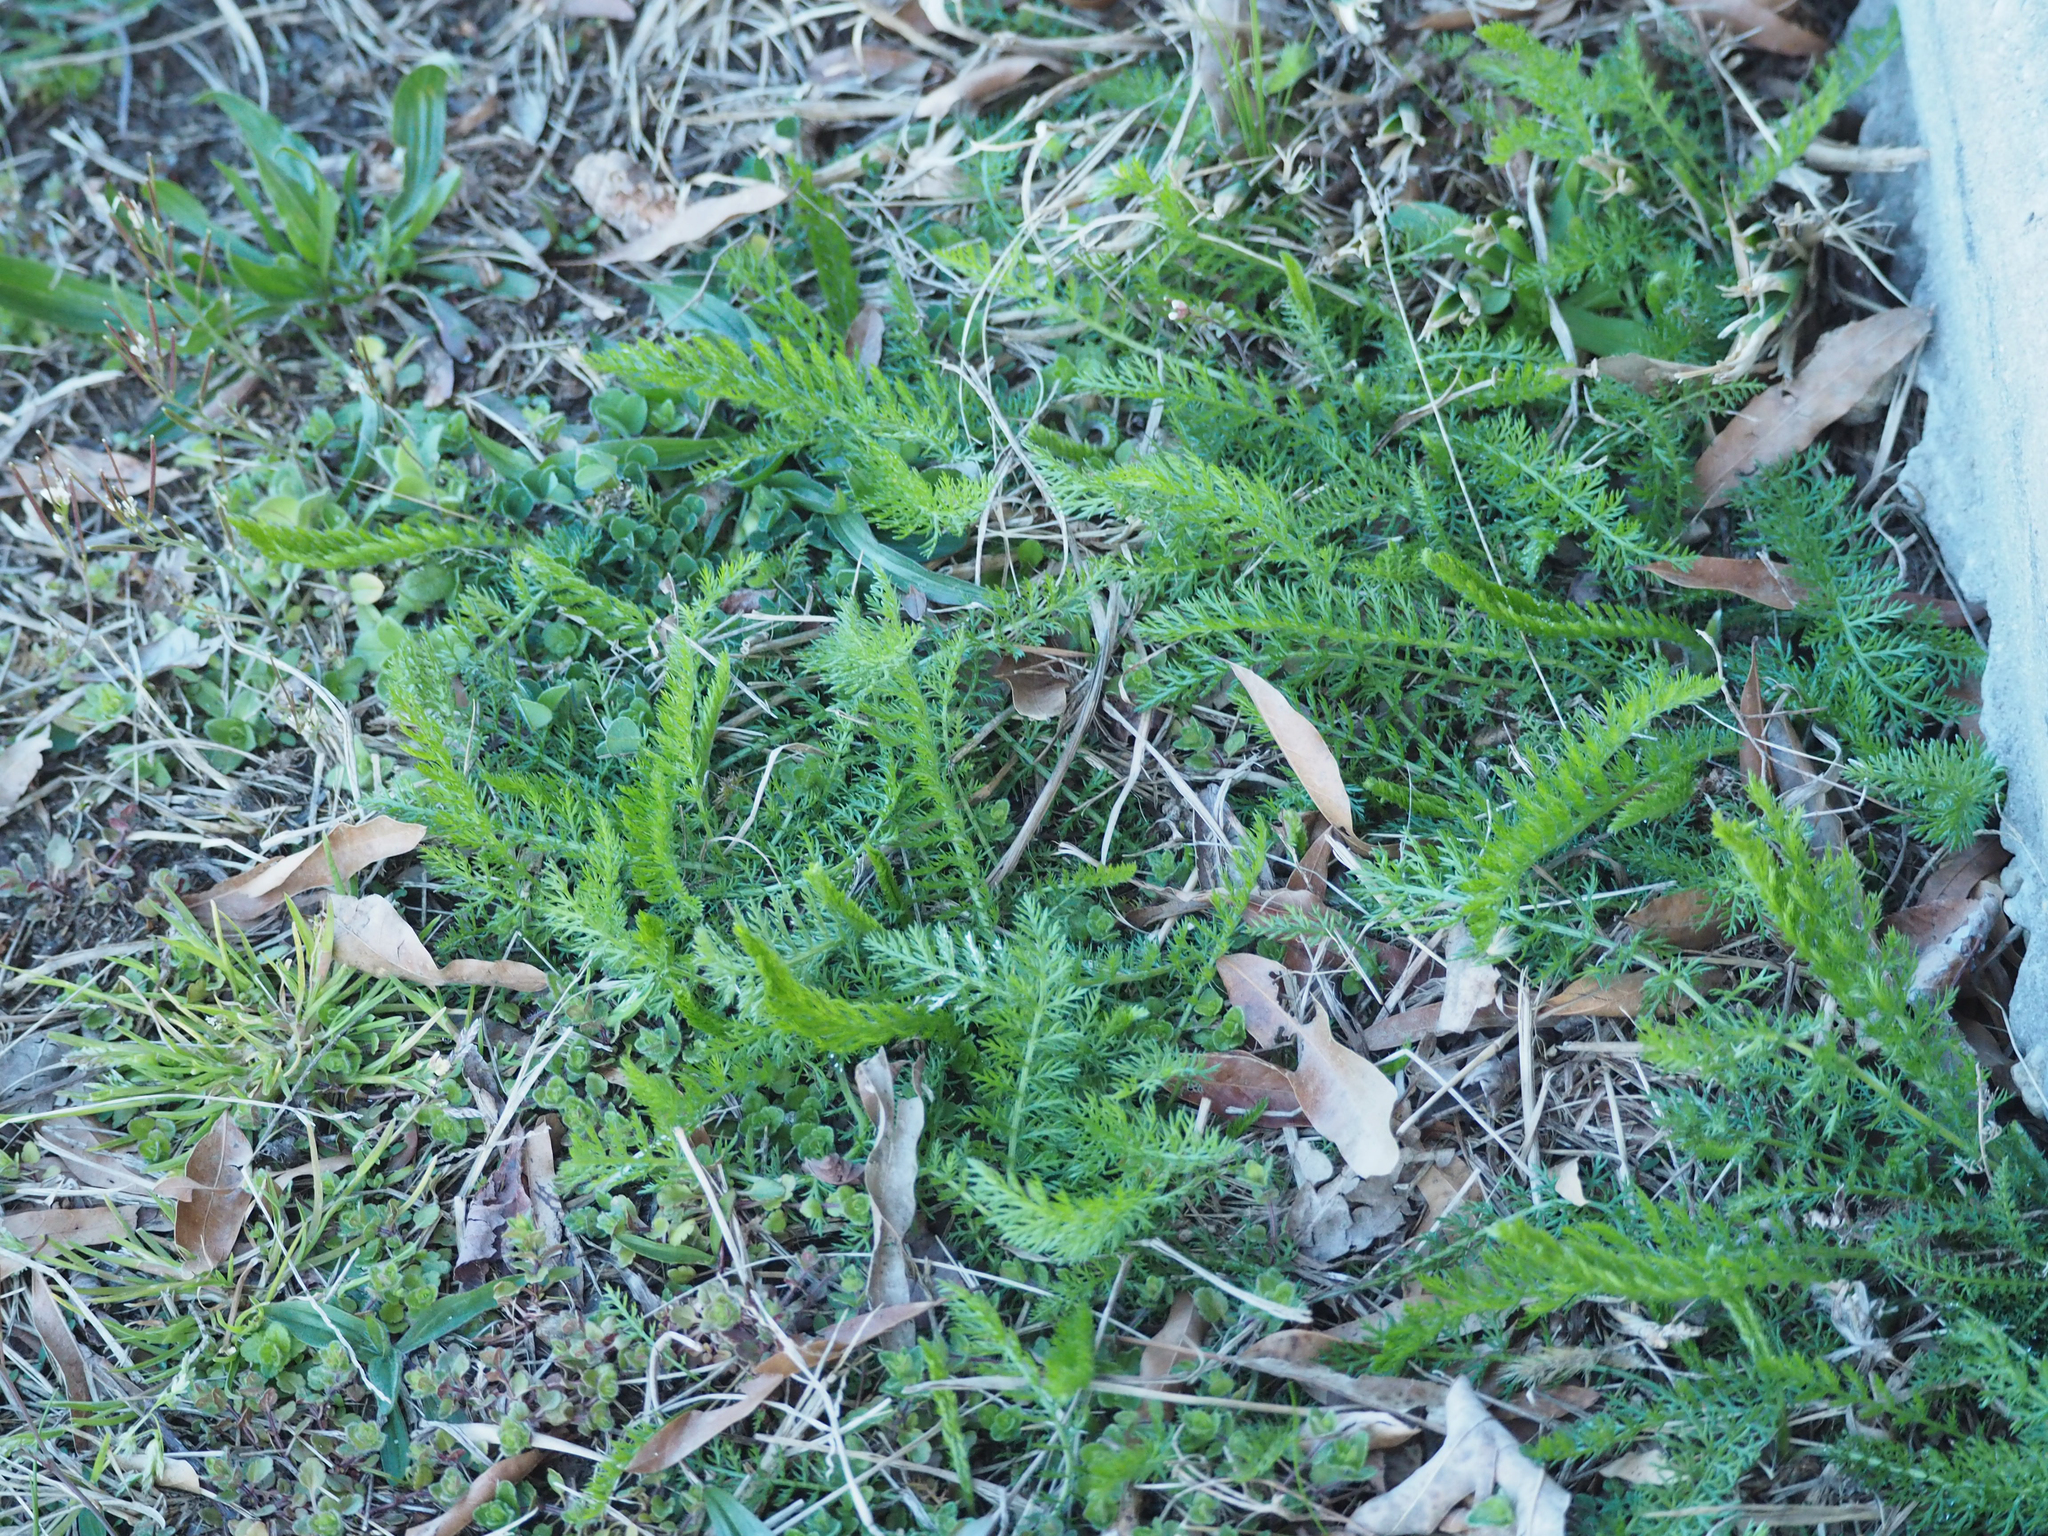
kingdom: Plantae
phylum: Tracheophyta
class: Magnoliopsida
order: Asterales
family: Asteraceae
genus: Achillea
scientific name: Achillea millefolium
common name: Yarrow
